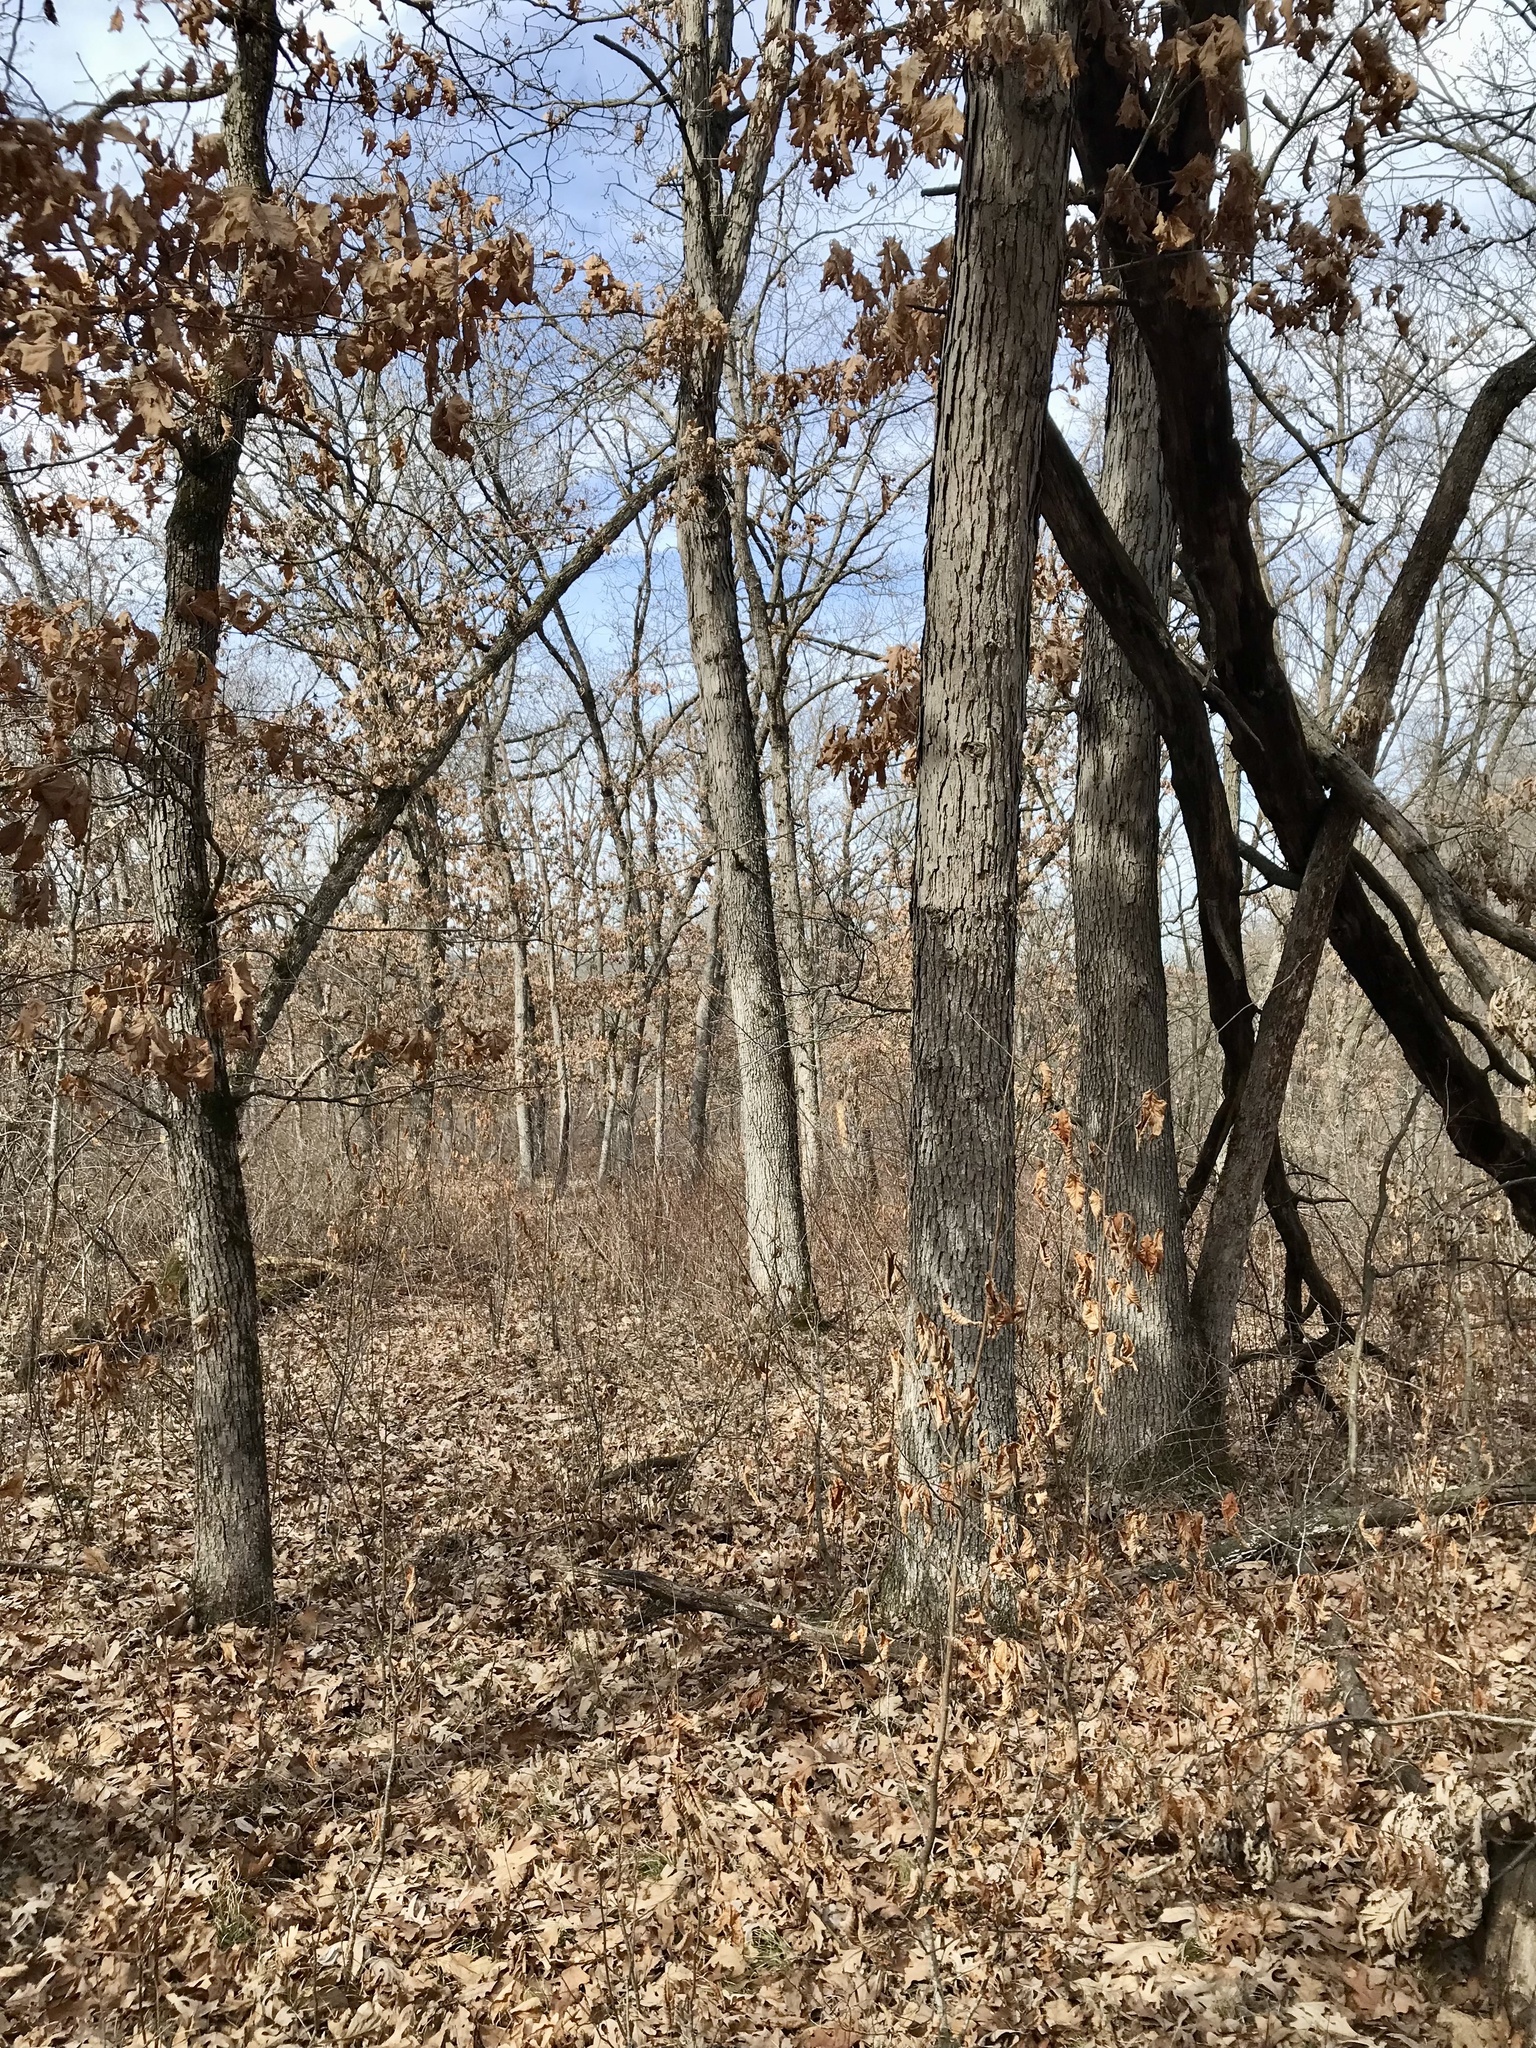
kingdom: Plantae
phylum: Tracheophyta
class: Magnoliopsida
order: Fagales
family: Fagaceae
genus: Quercus
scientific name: Quercus alba
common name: White oak
